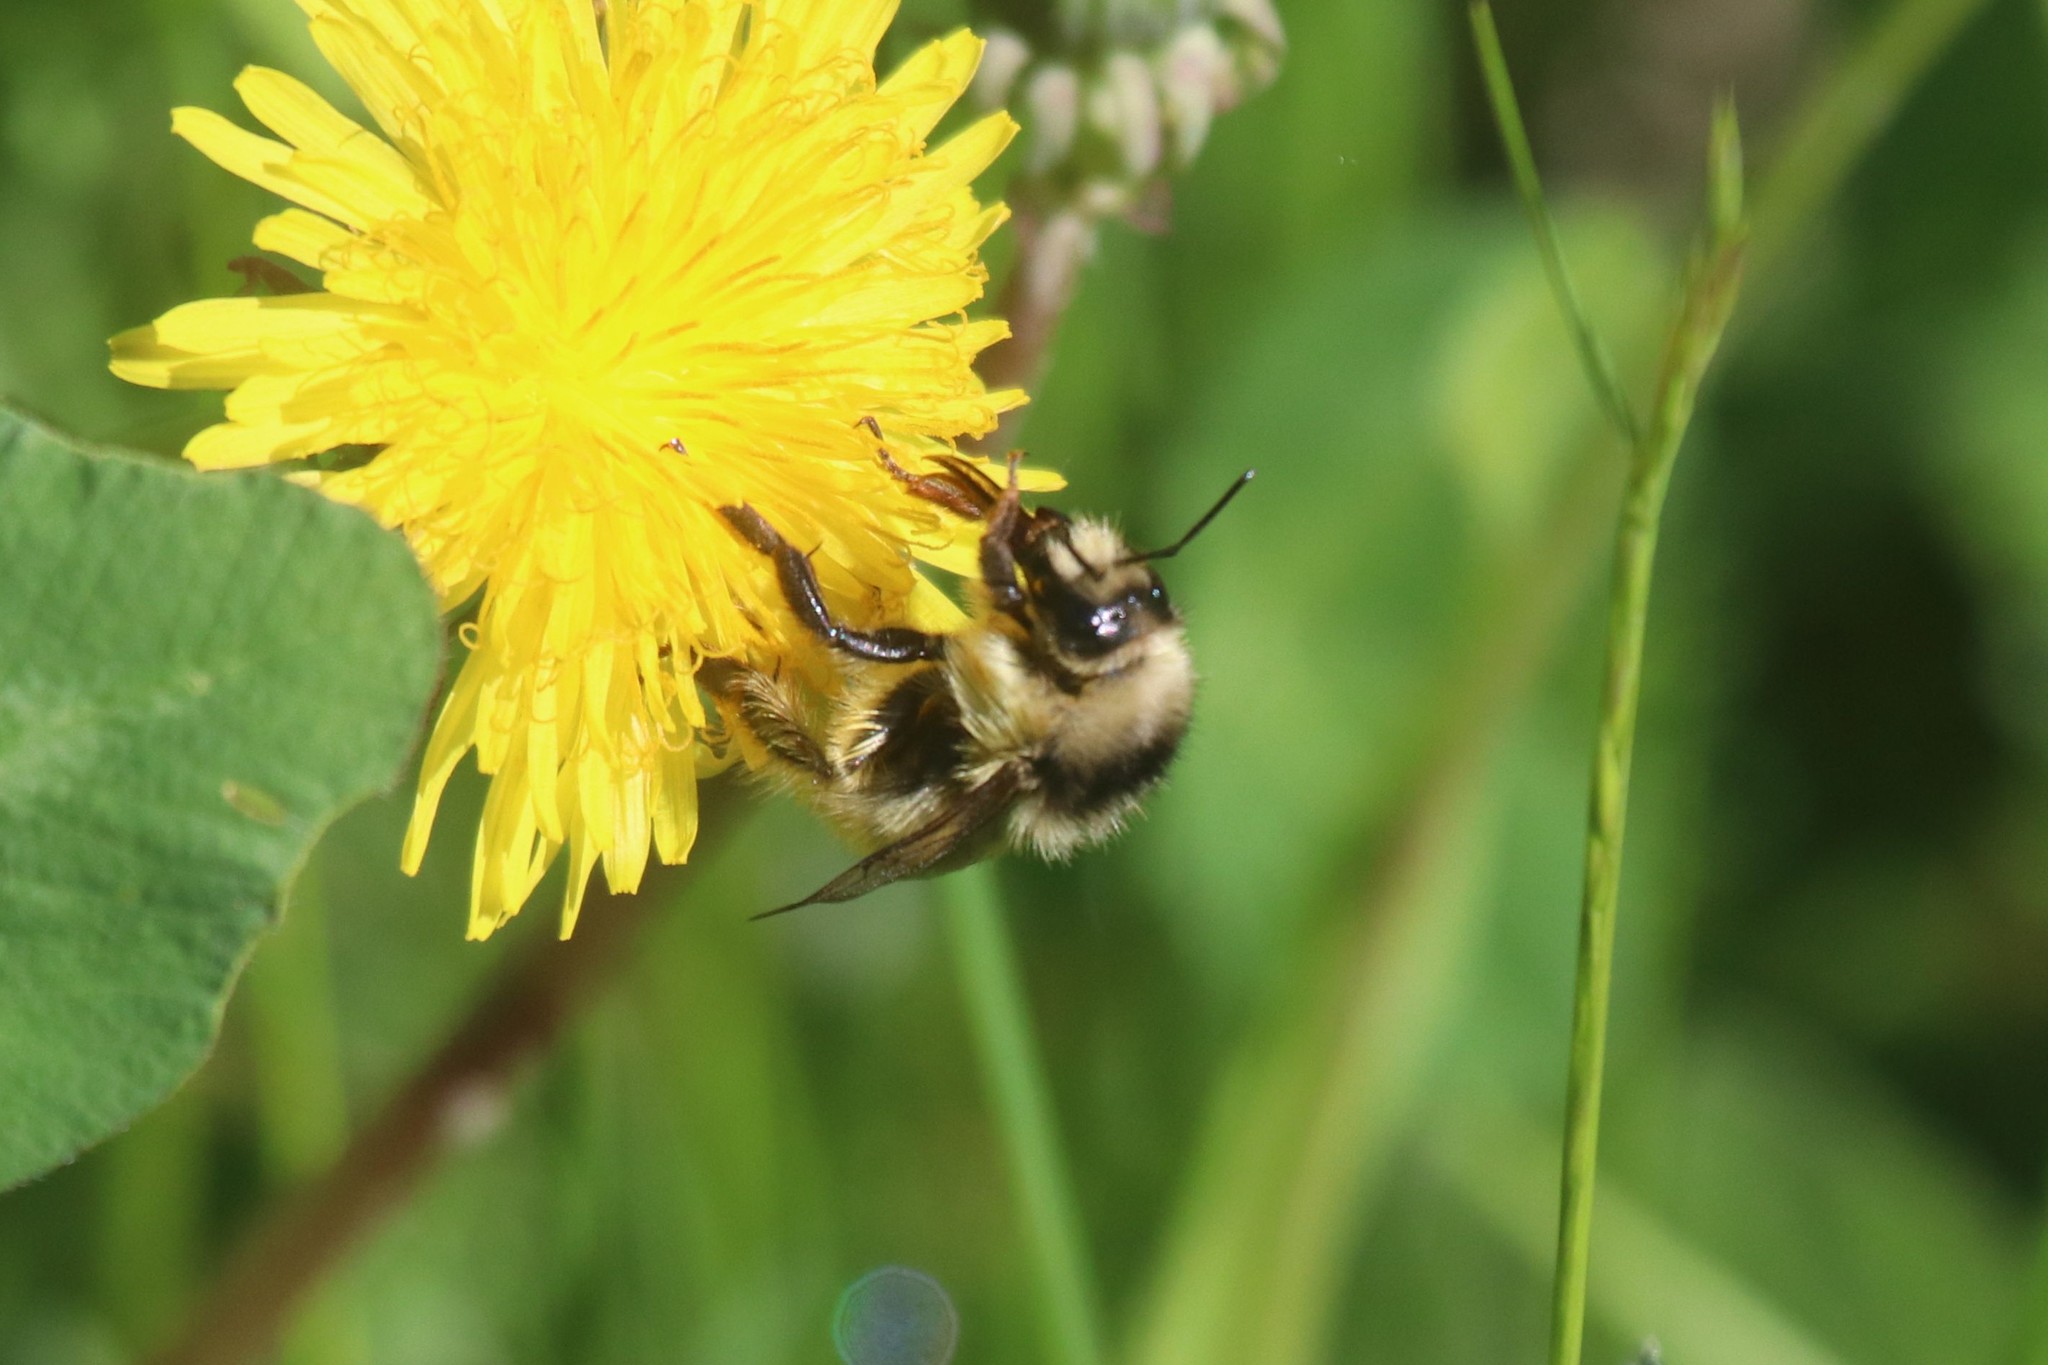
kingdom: Animalia
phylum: Arthropoda
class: Insecta
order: Hymenoptera
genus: Thoracobombus
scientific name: Thoracobombus
